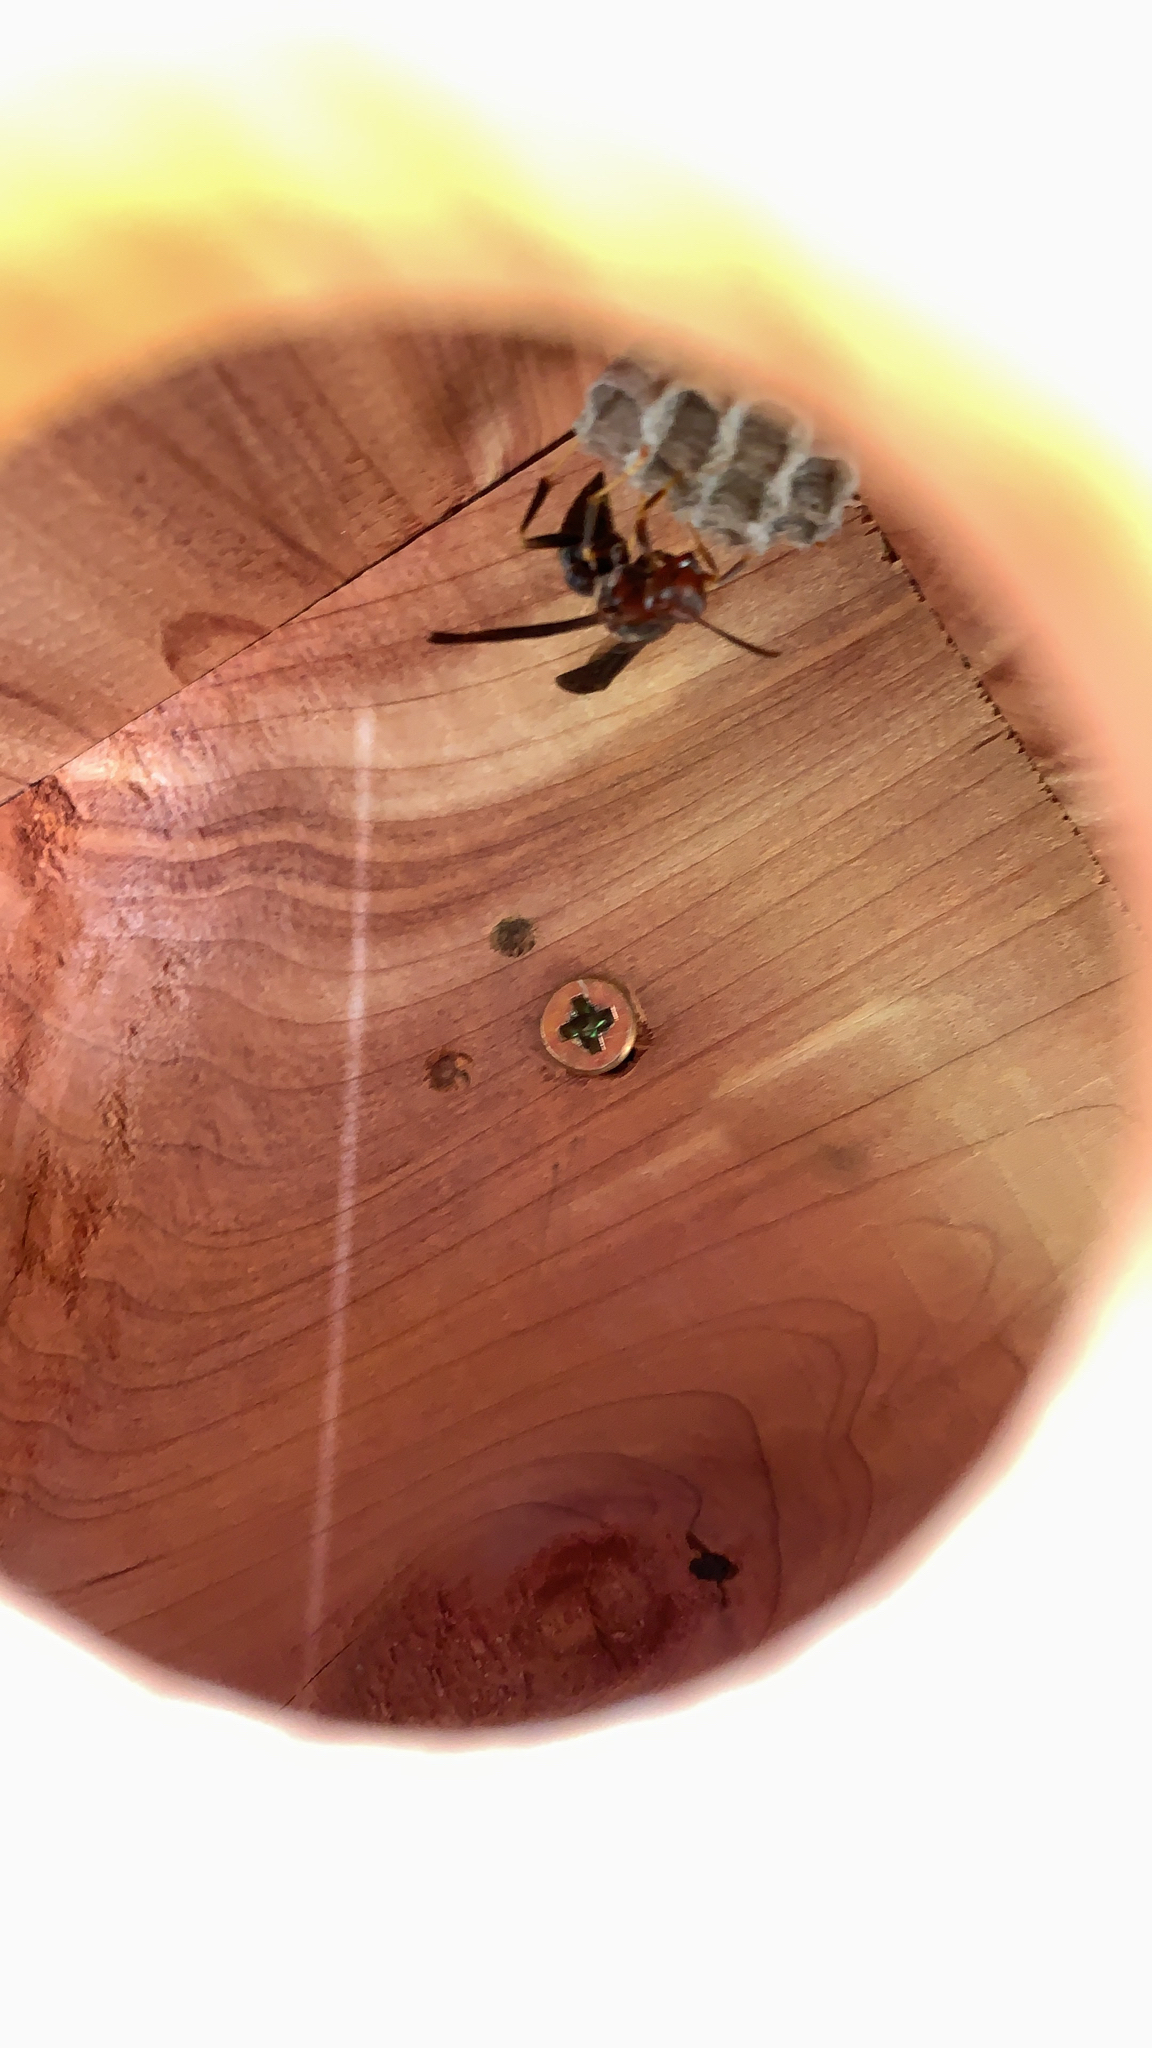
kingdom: Animalia
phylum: Arthropoda
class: Insecta
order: Hymenoptera
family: Eumenidae
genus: Polistes
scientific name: Polistes metricus
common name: Metric paper wasp
